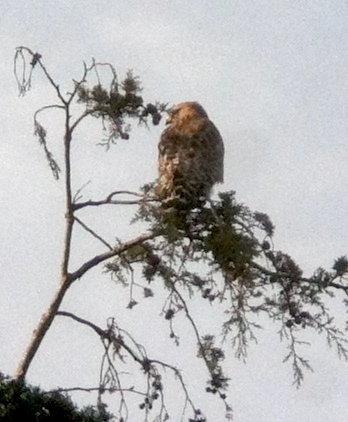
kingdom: Animalia
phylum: Chordata
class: Aves
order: Accipitriformes
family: Accipitridae
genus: Buteo
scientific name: Buteo lineatus
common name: Red-shouldered hawk
